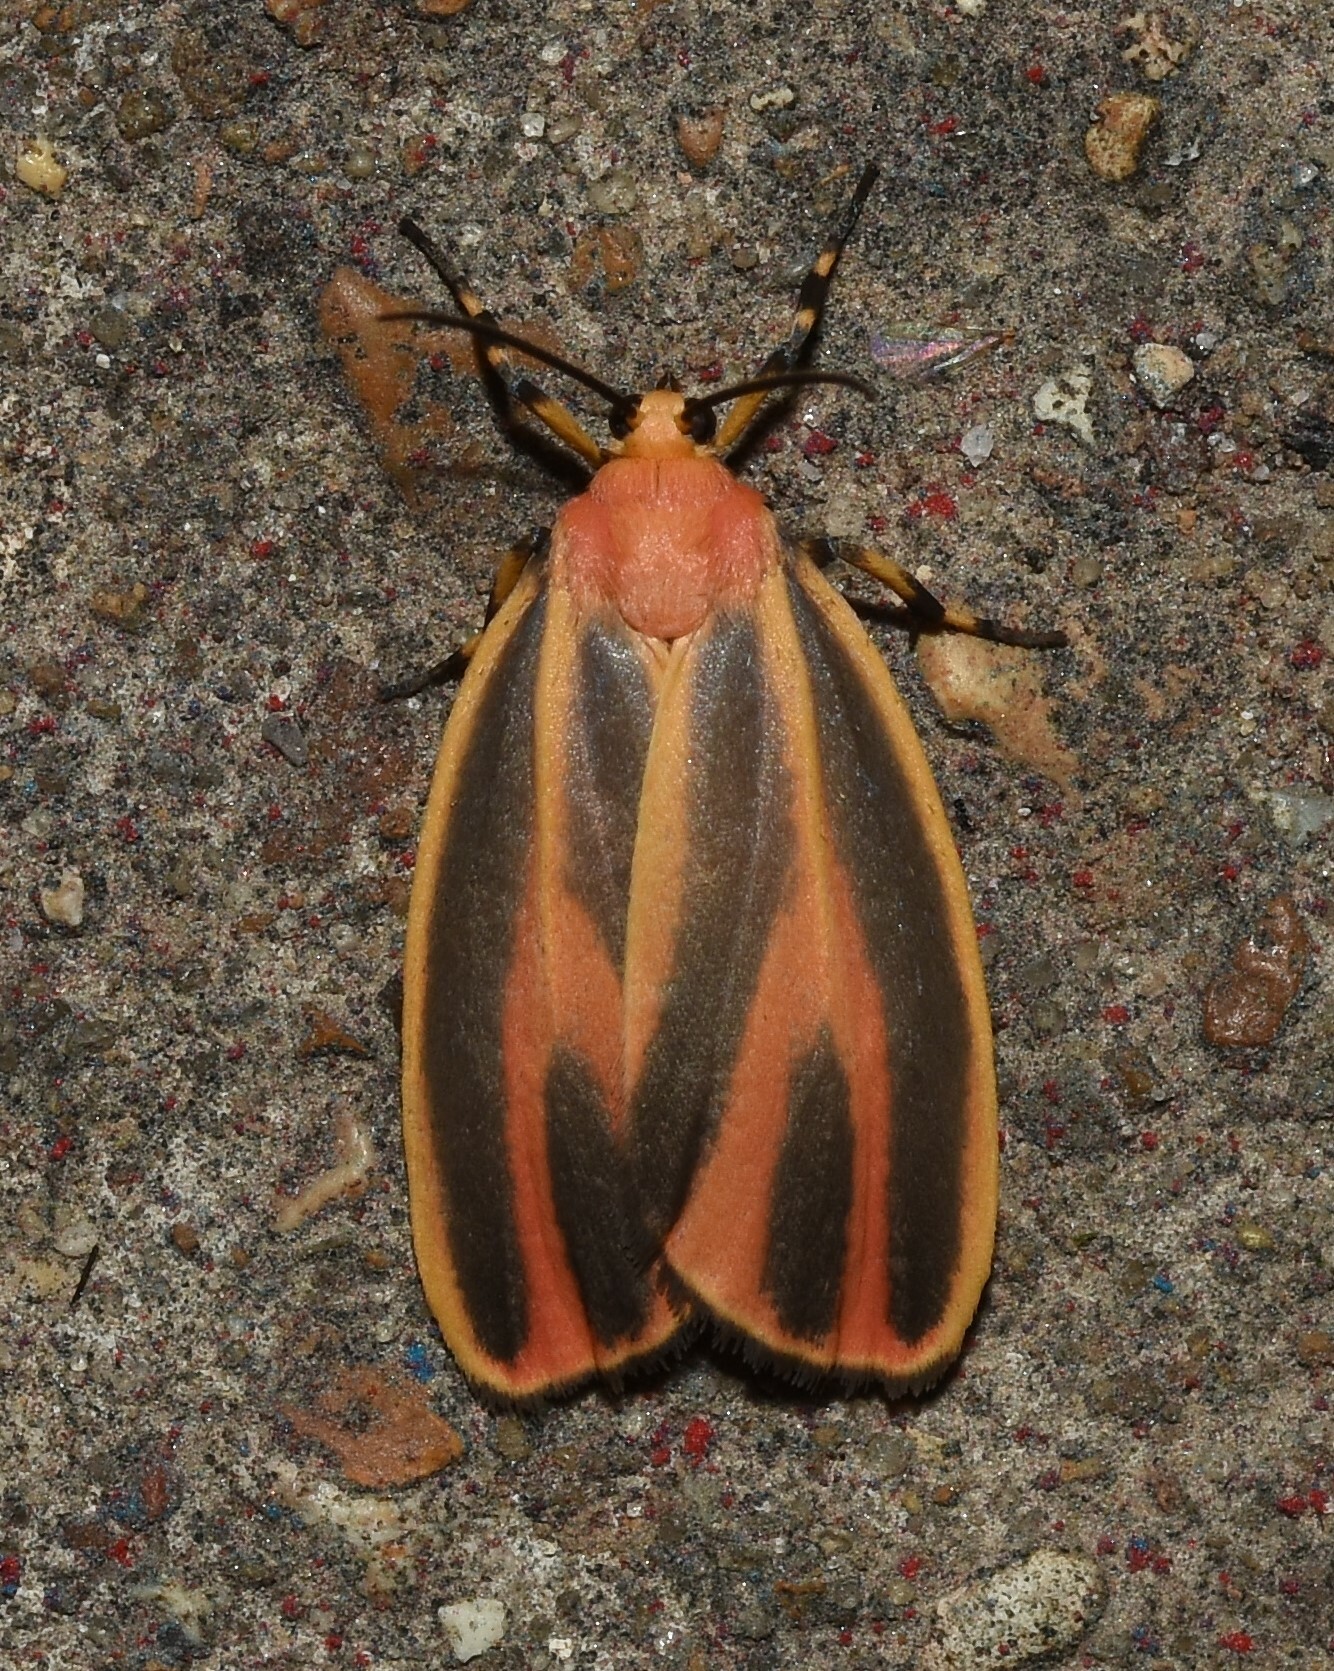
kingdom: Animalia
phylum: Arthropoda
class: Insecta
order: Lepidoptera
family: Erebidae
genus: Hypoprepia
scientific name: Hypoprepia fucosa
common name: Painted lichen moth
